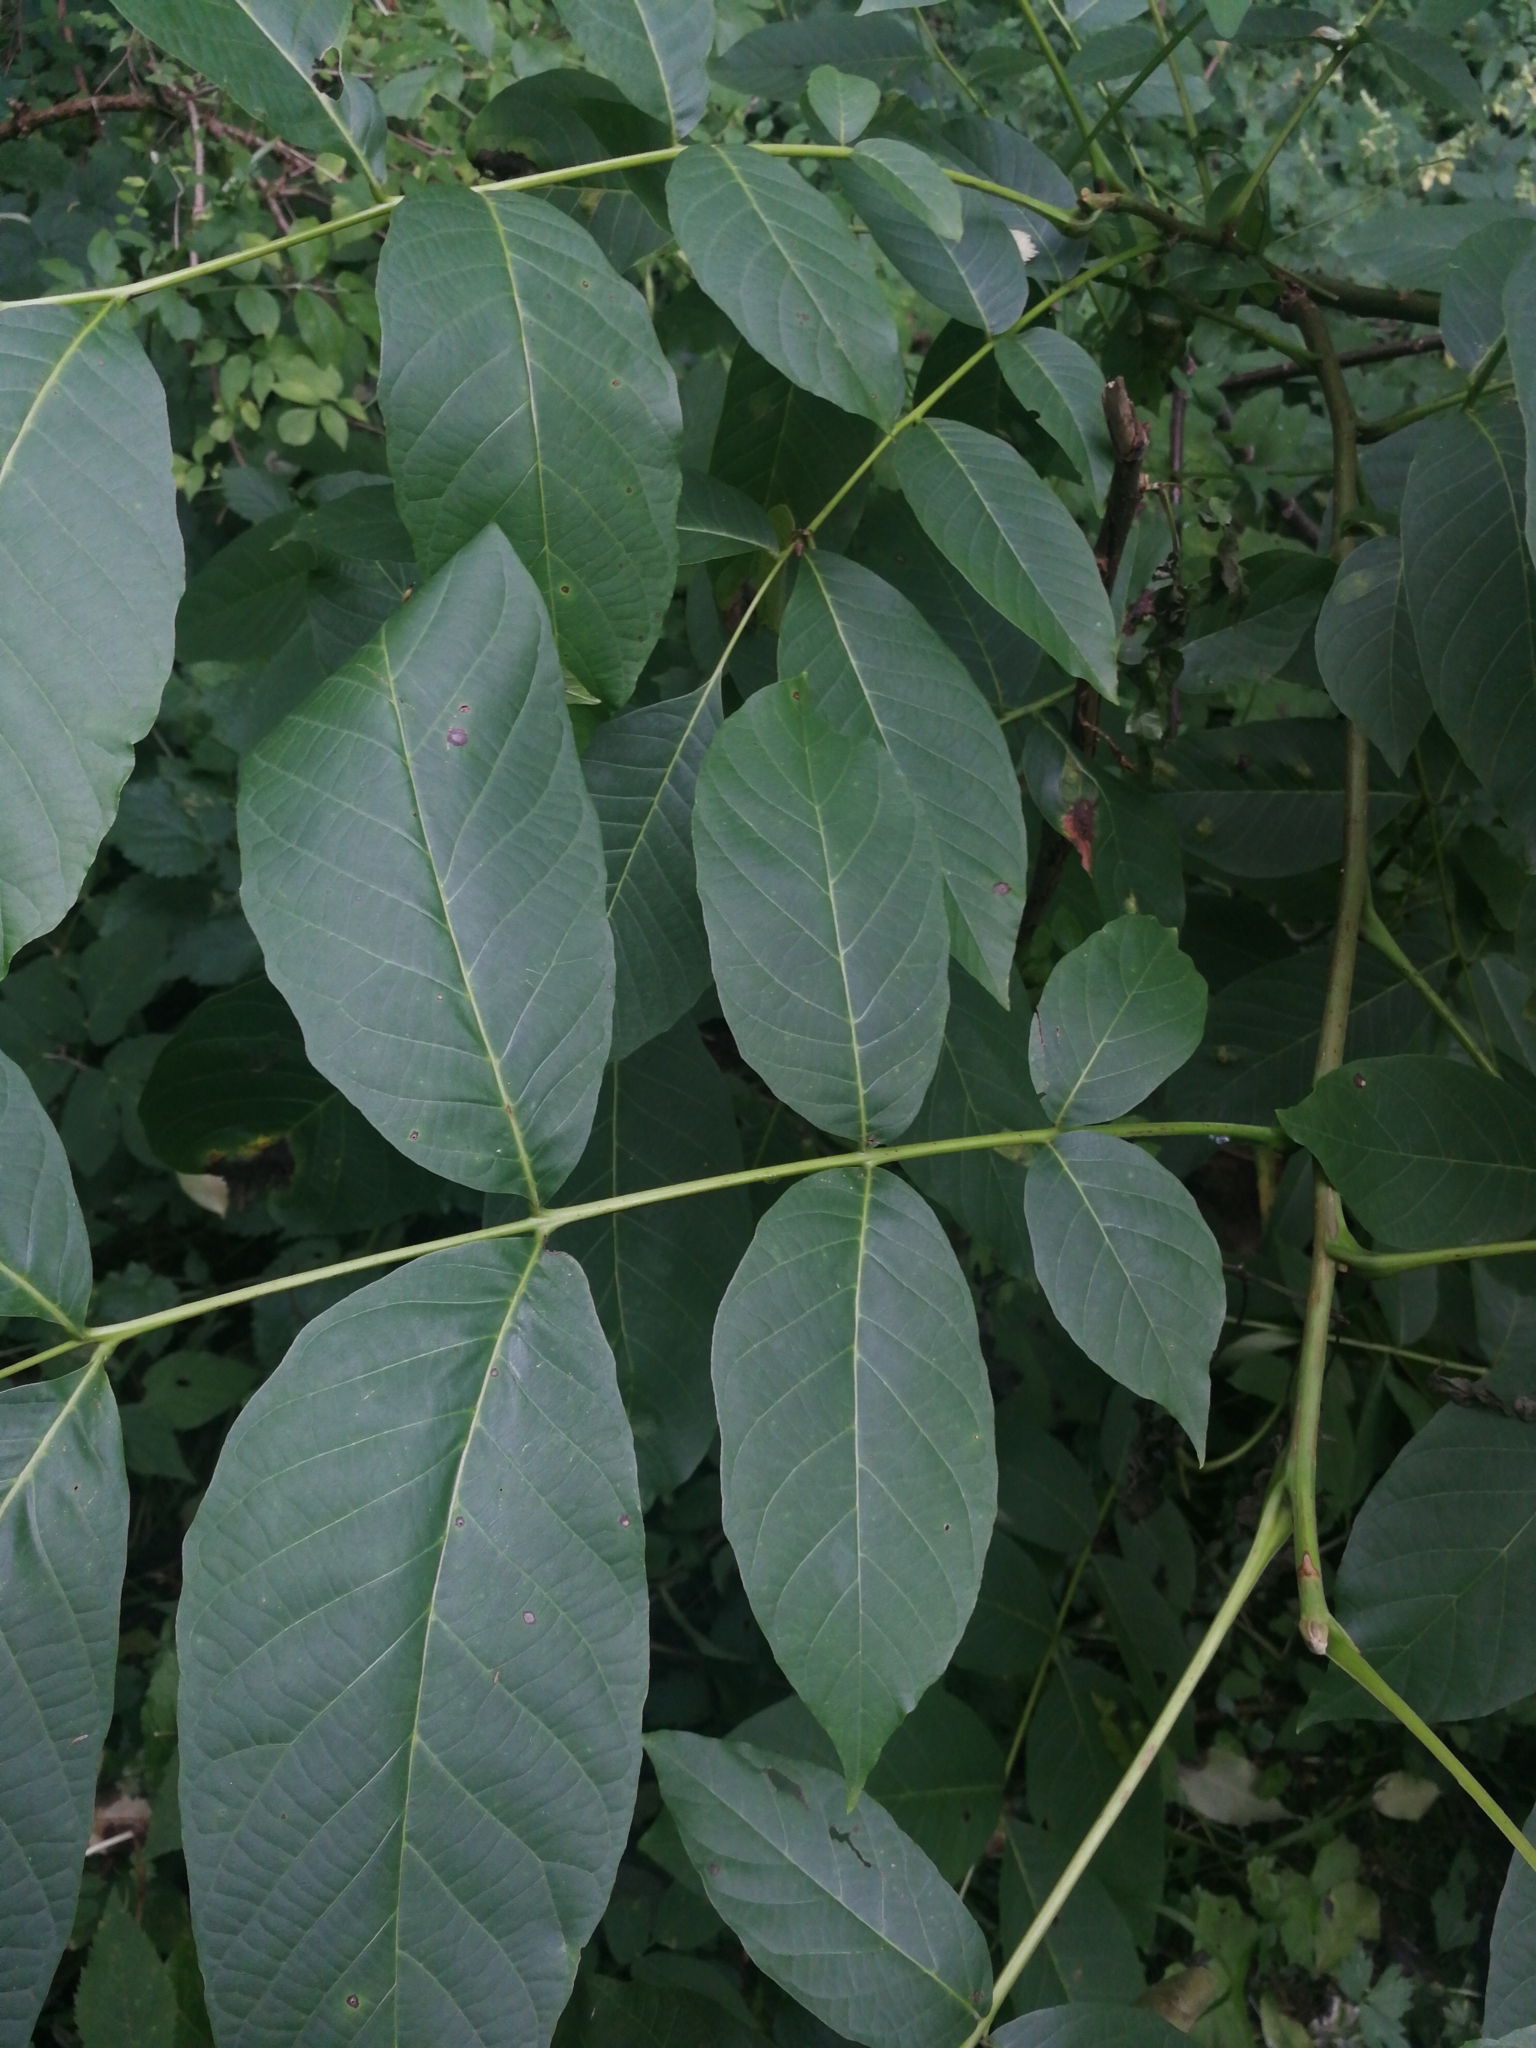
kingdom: Plantae
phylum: Tracheophyta
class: Magnoliopsida
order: Fagales
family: Juglandaceae
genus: Juglans
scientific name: Juglans regia
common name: Walnut
